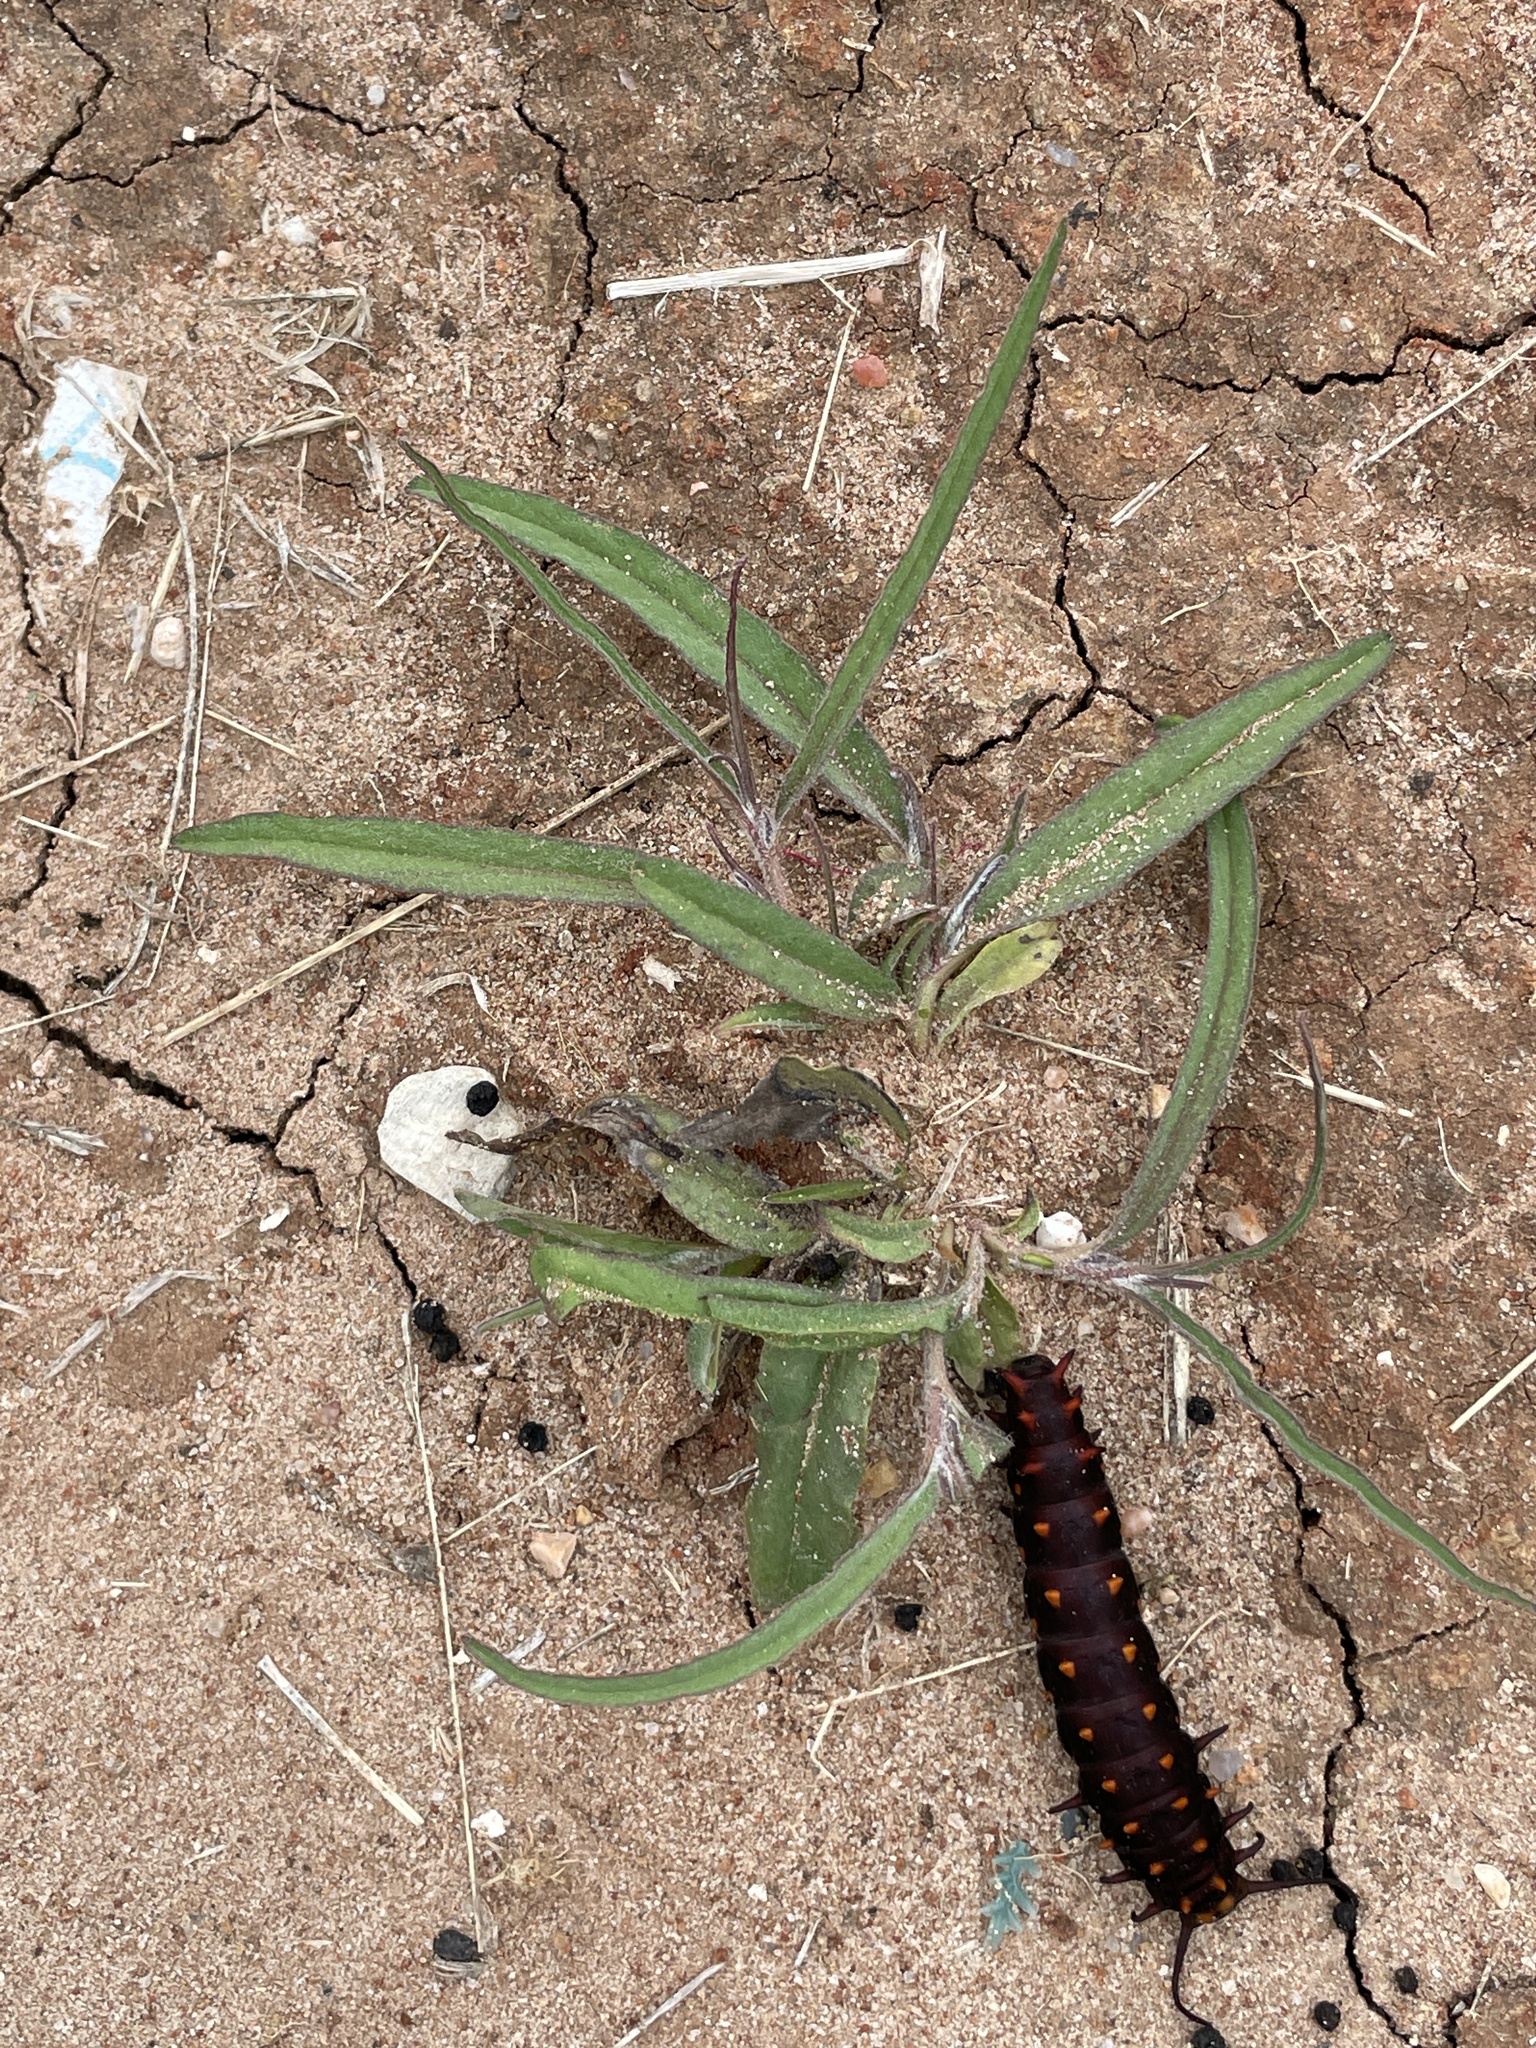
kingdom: Plantae
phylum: Tracheophyta
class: Magnoliopsida
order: Piperales
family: Aristolochiaceae
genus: Aristolochia
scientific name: Aristolochia erecta
